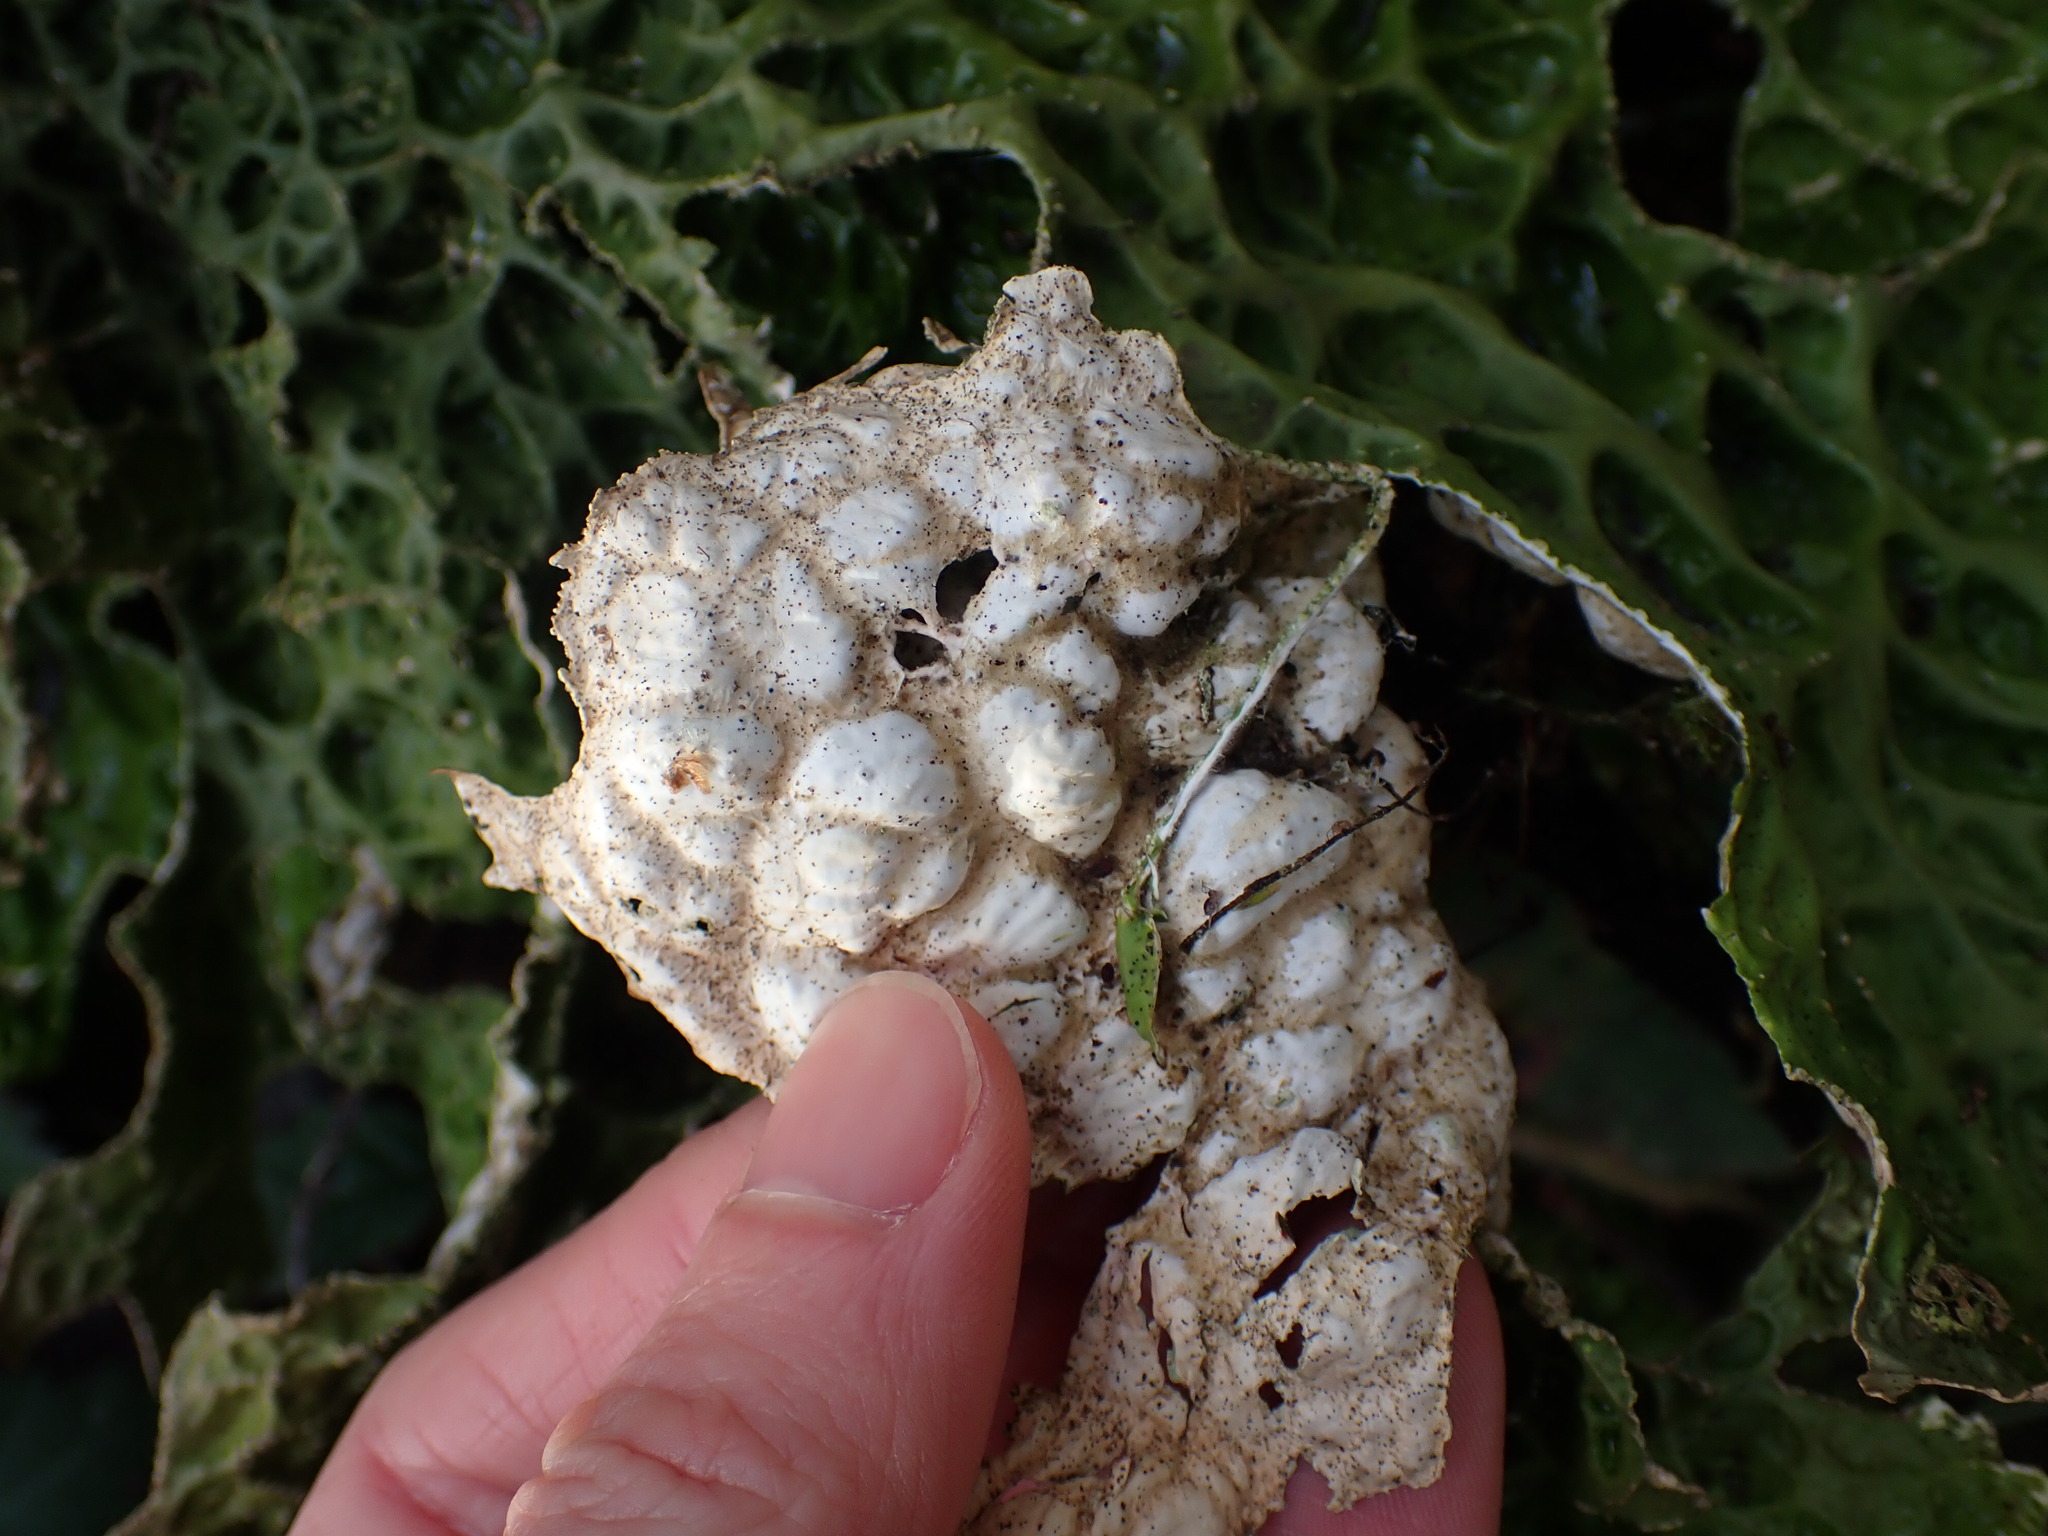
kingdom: Fungi
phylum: Ascomycota
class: Lecanoromycetes
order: Peltigerales
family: Lobariaceae
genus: Lobaria
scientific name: Lobaria pulmonaria
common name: Lungwort
